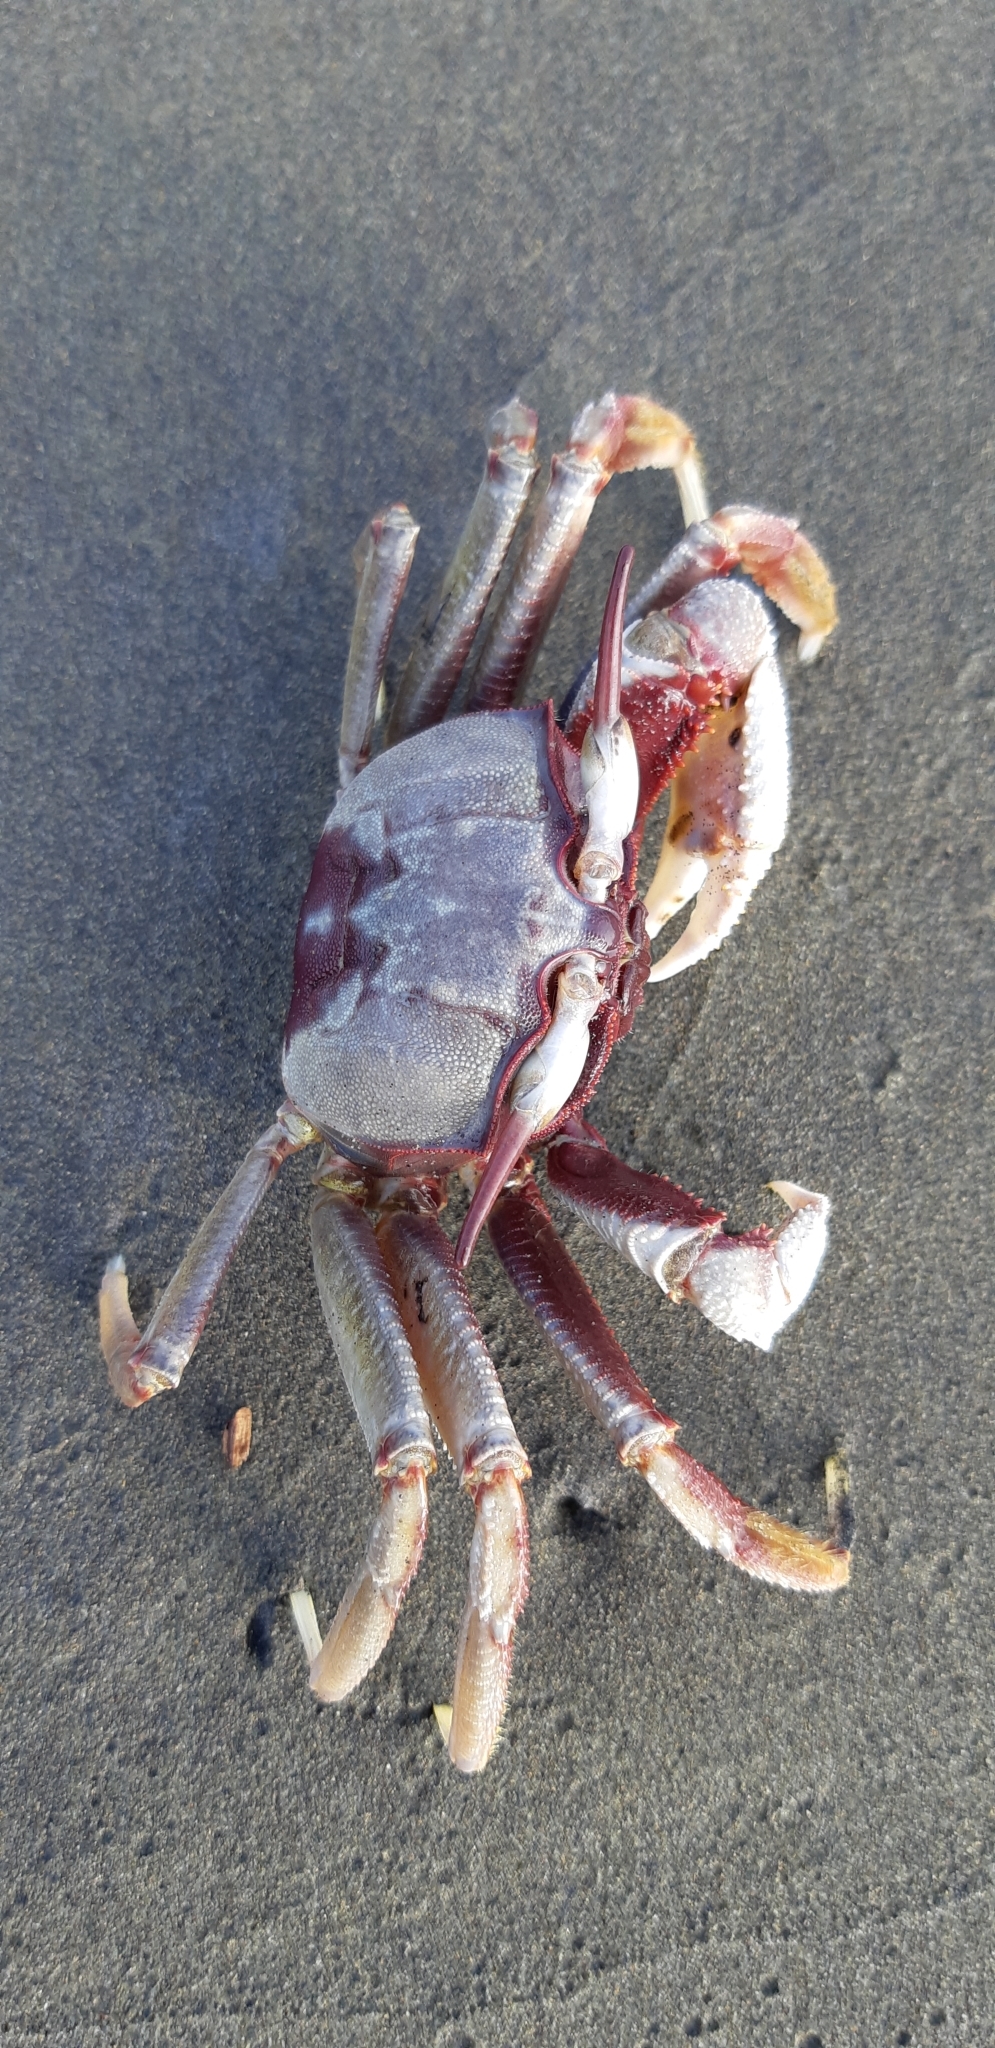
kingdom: Animalia
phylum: Arthropoda
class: Malacostraca
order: Decapoda
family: Ocypodidae
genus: Ocypode
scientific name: Ocypode ceratophthalmus
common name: Indo-pacific ghost crab
